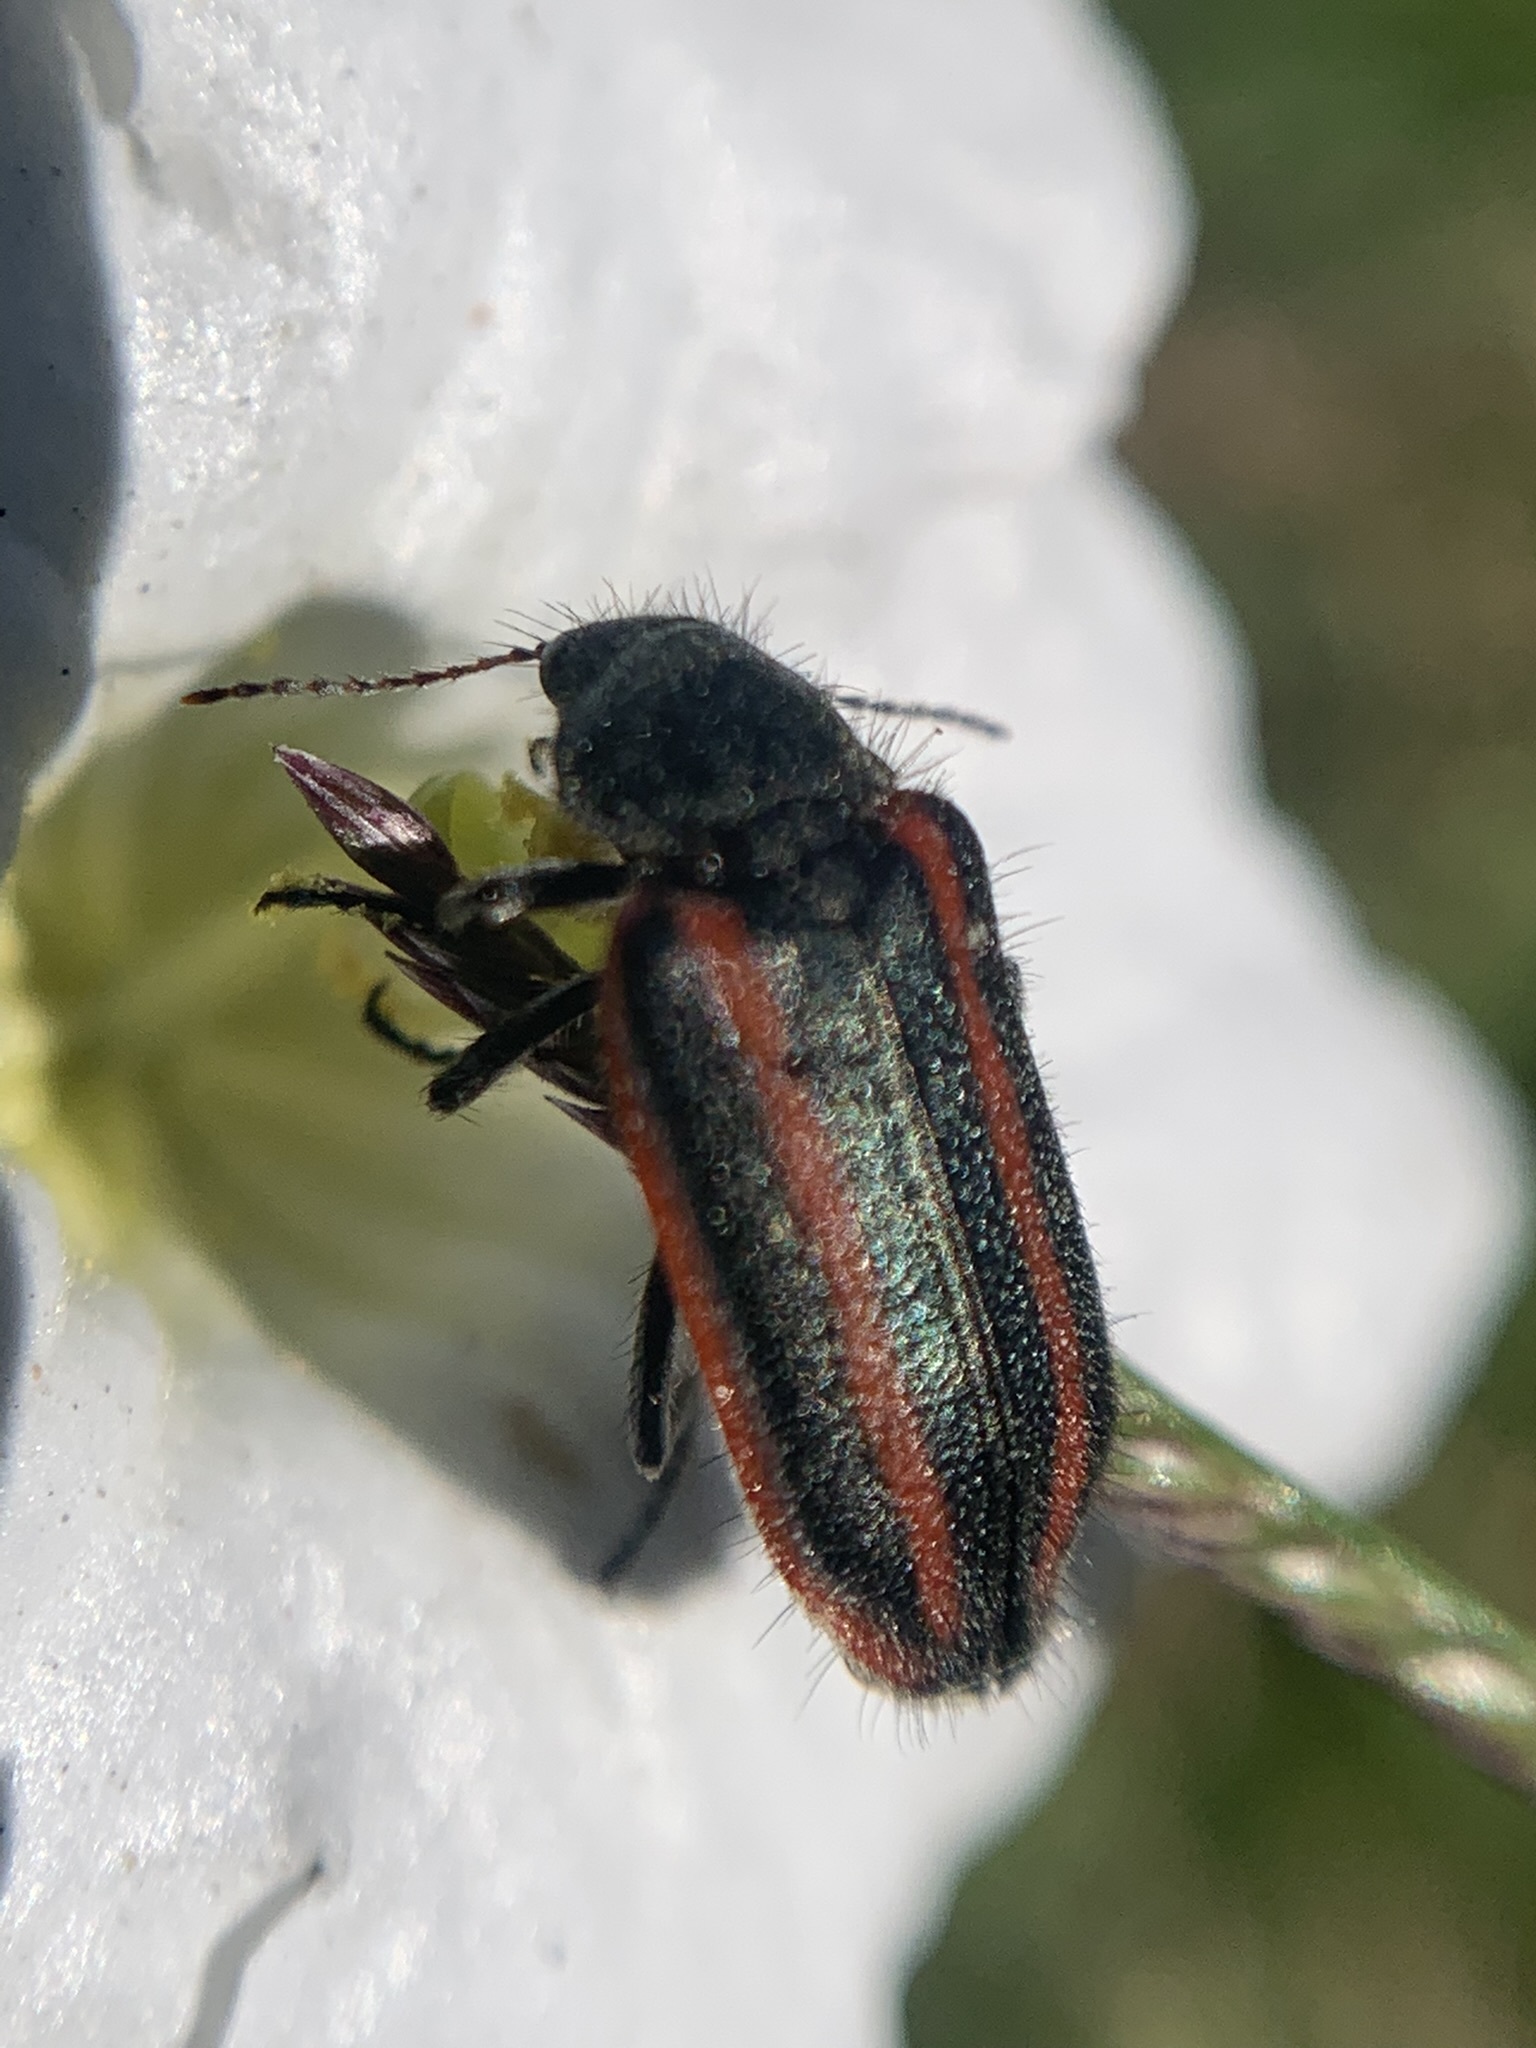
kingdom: Animalia
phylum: Arthropoda
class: Insecta
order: Coleoptera
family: Melyridae
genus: Astylus
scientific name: Astylus
